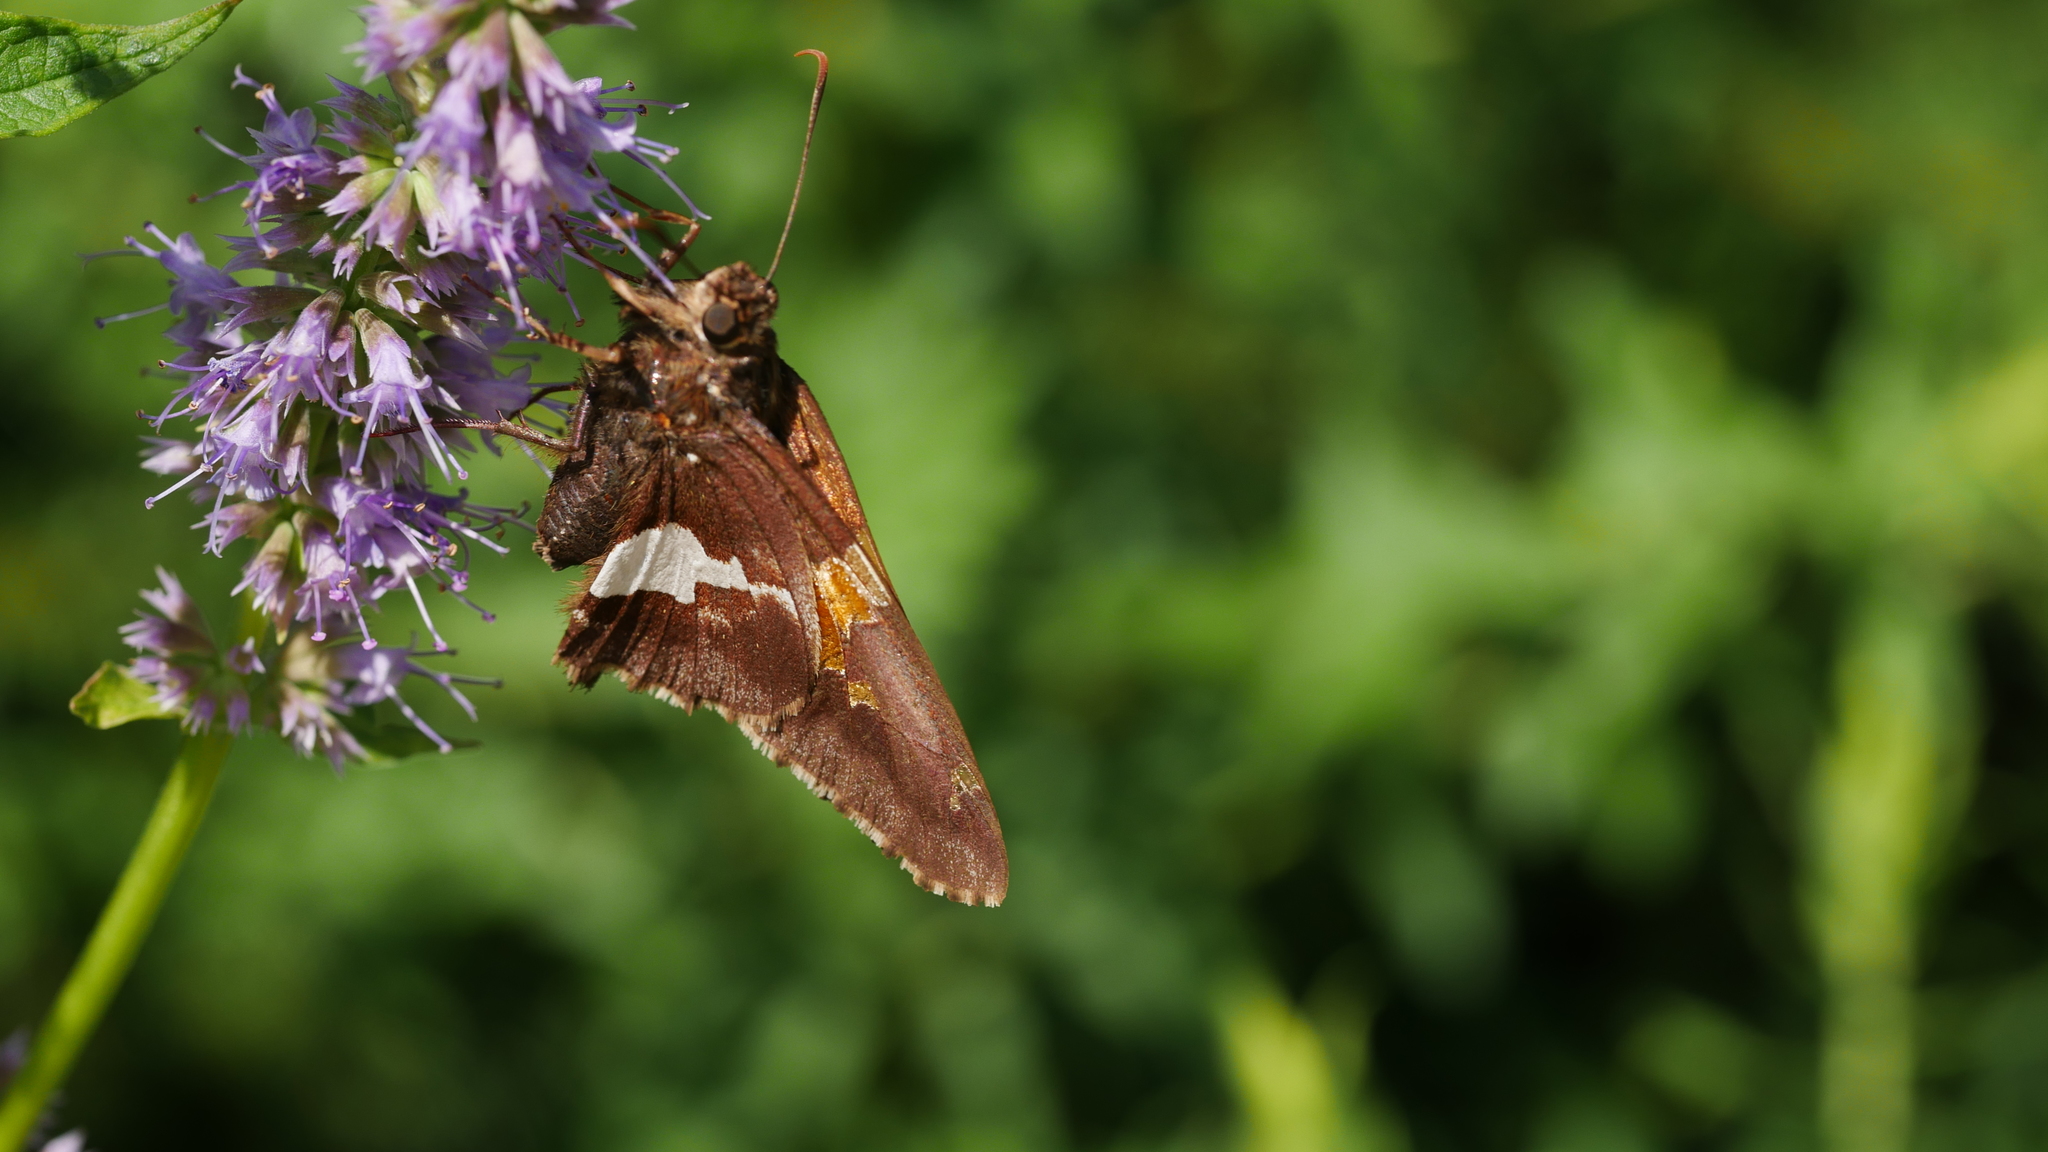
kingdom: Animalia
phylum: Arthropoda
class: Insecta
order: Lepidoptera
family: Hesperiidae
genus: Epargyreus
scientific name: Epargyreus clarus
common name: Silver-spotted skipper
